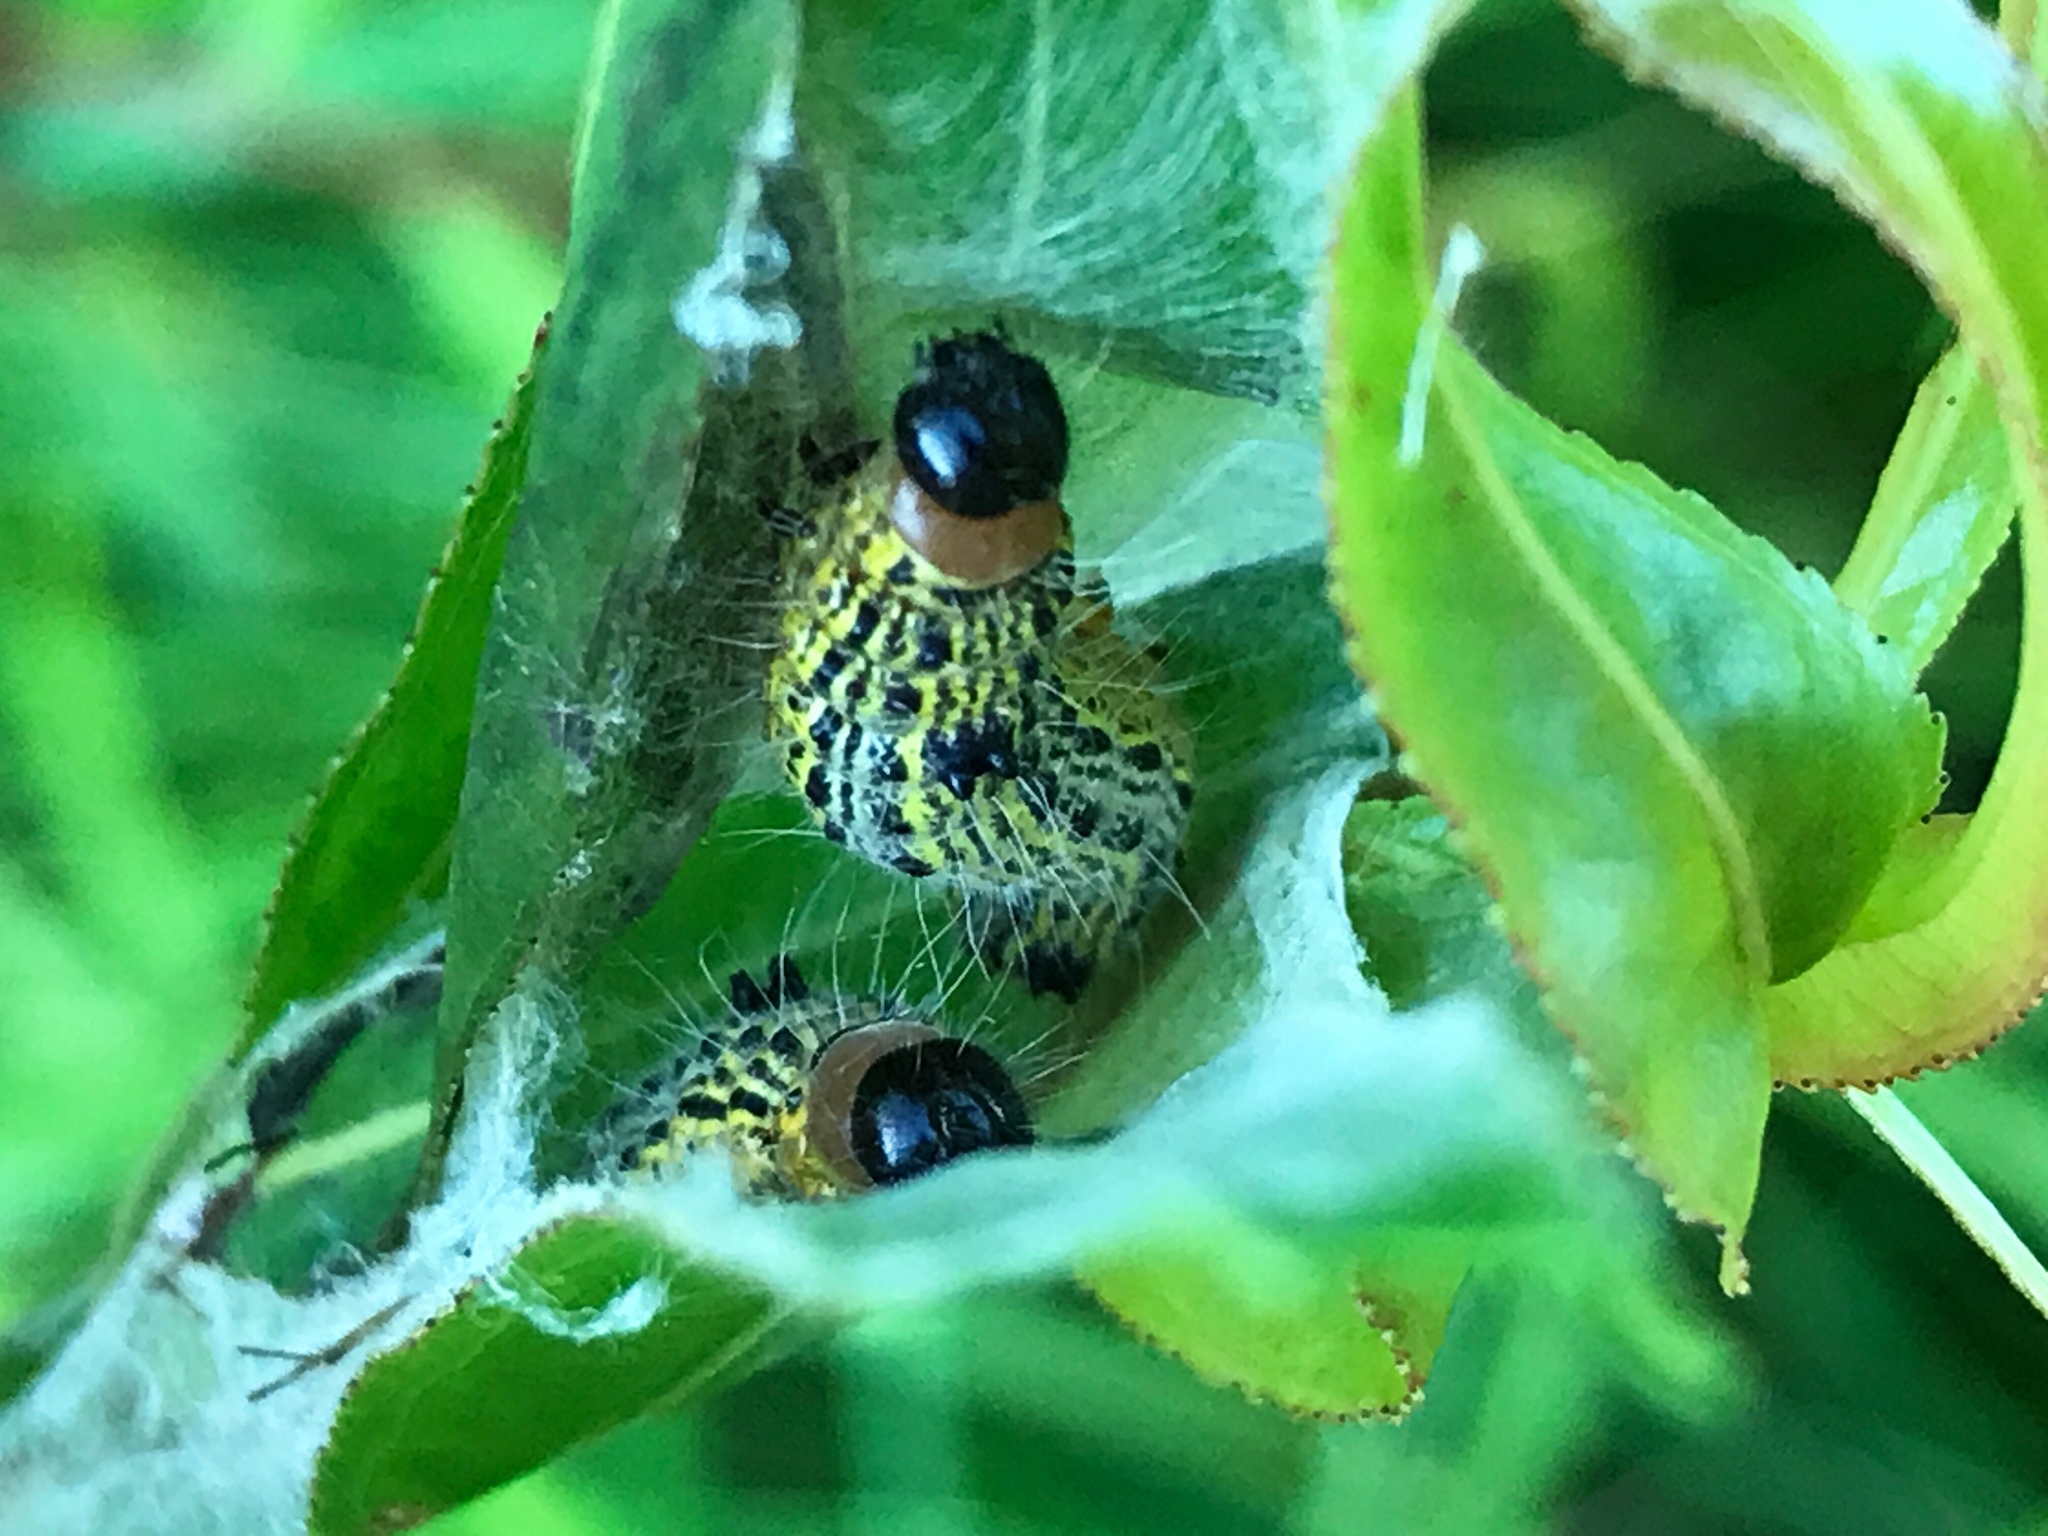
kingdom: Animalia
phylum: Arthropoda
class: Insecta
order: Lepidoptera
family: Notodontidae
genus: Clostera
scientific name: Clostera inclusa
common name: Angle-lined prominent
